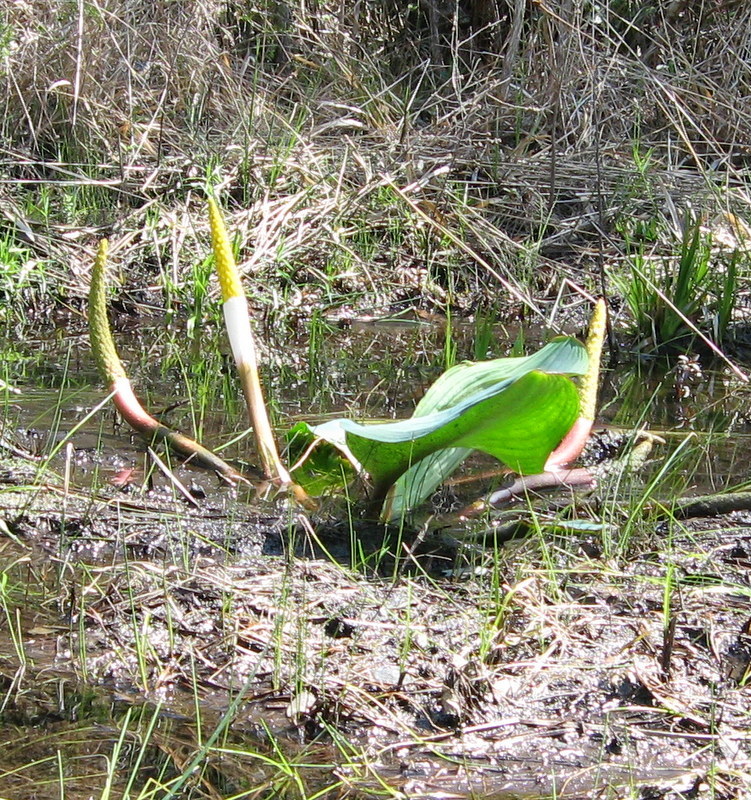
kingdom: Plantae
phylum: Tracheophyta
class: Liliopsida
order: Alismatales
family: Araceae
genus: Orontium
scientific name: Orontium aquaticum
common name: Golden-club
